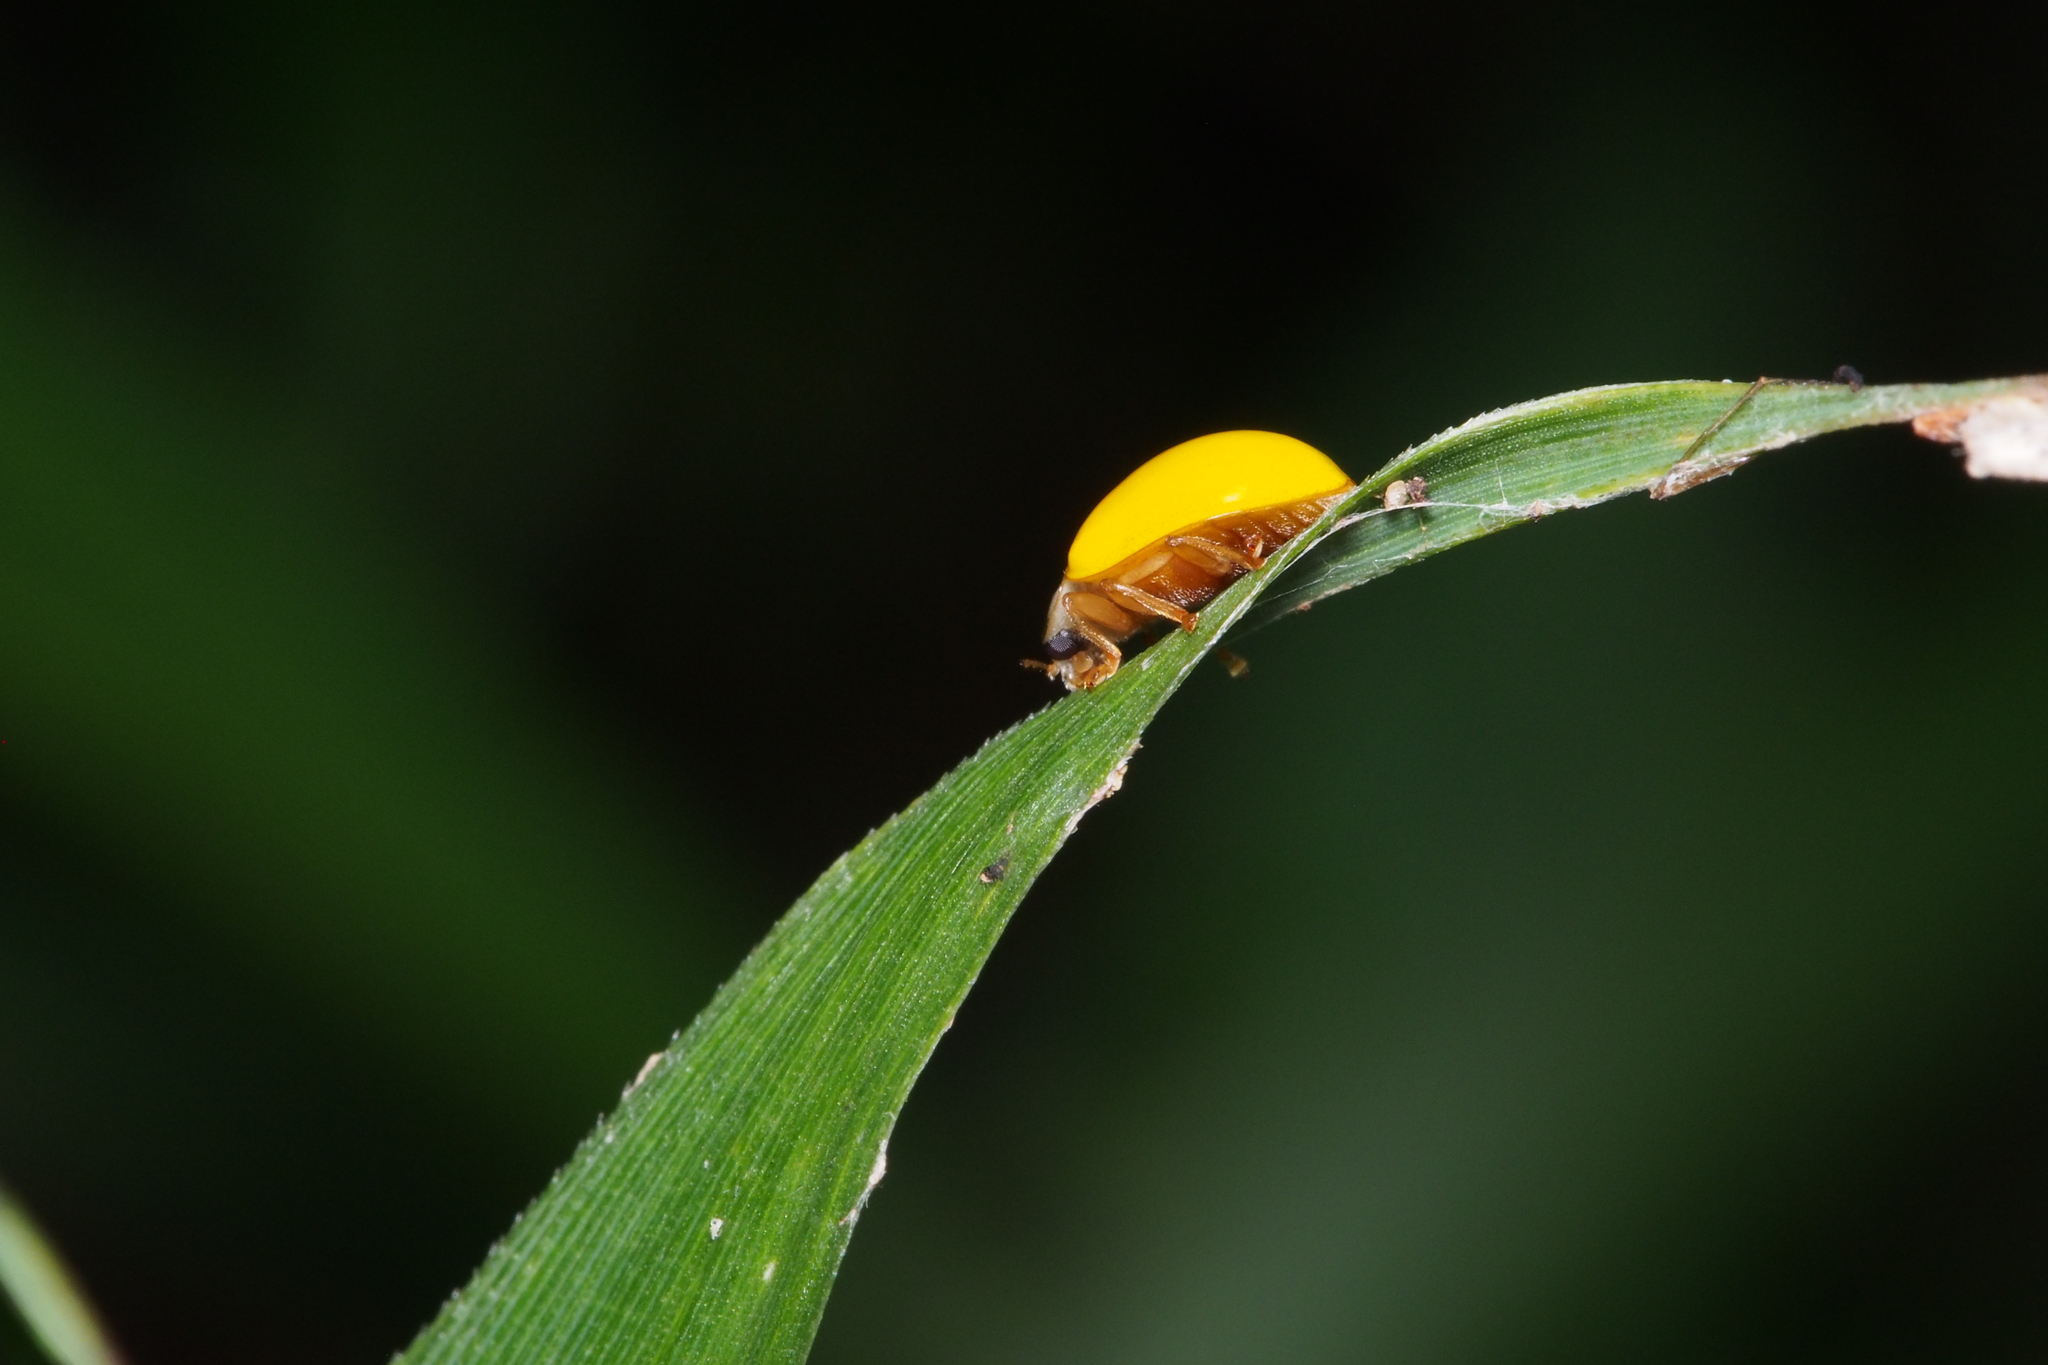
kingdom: Animalia
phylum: Arthropoda
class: Insecta
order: Coleoptera
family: Coccinellidae
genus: Illeis
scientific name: Illeis koebelei
